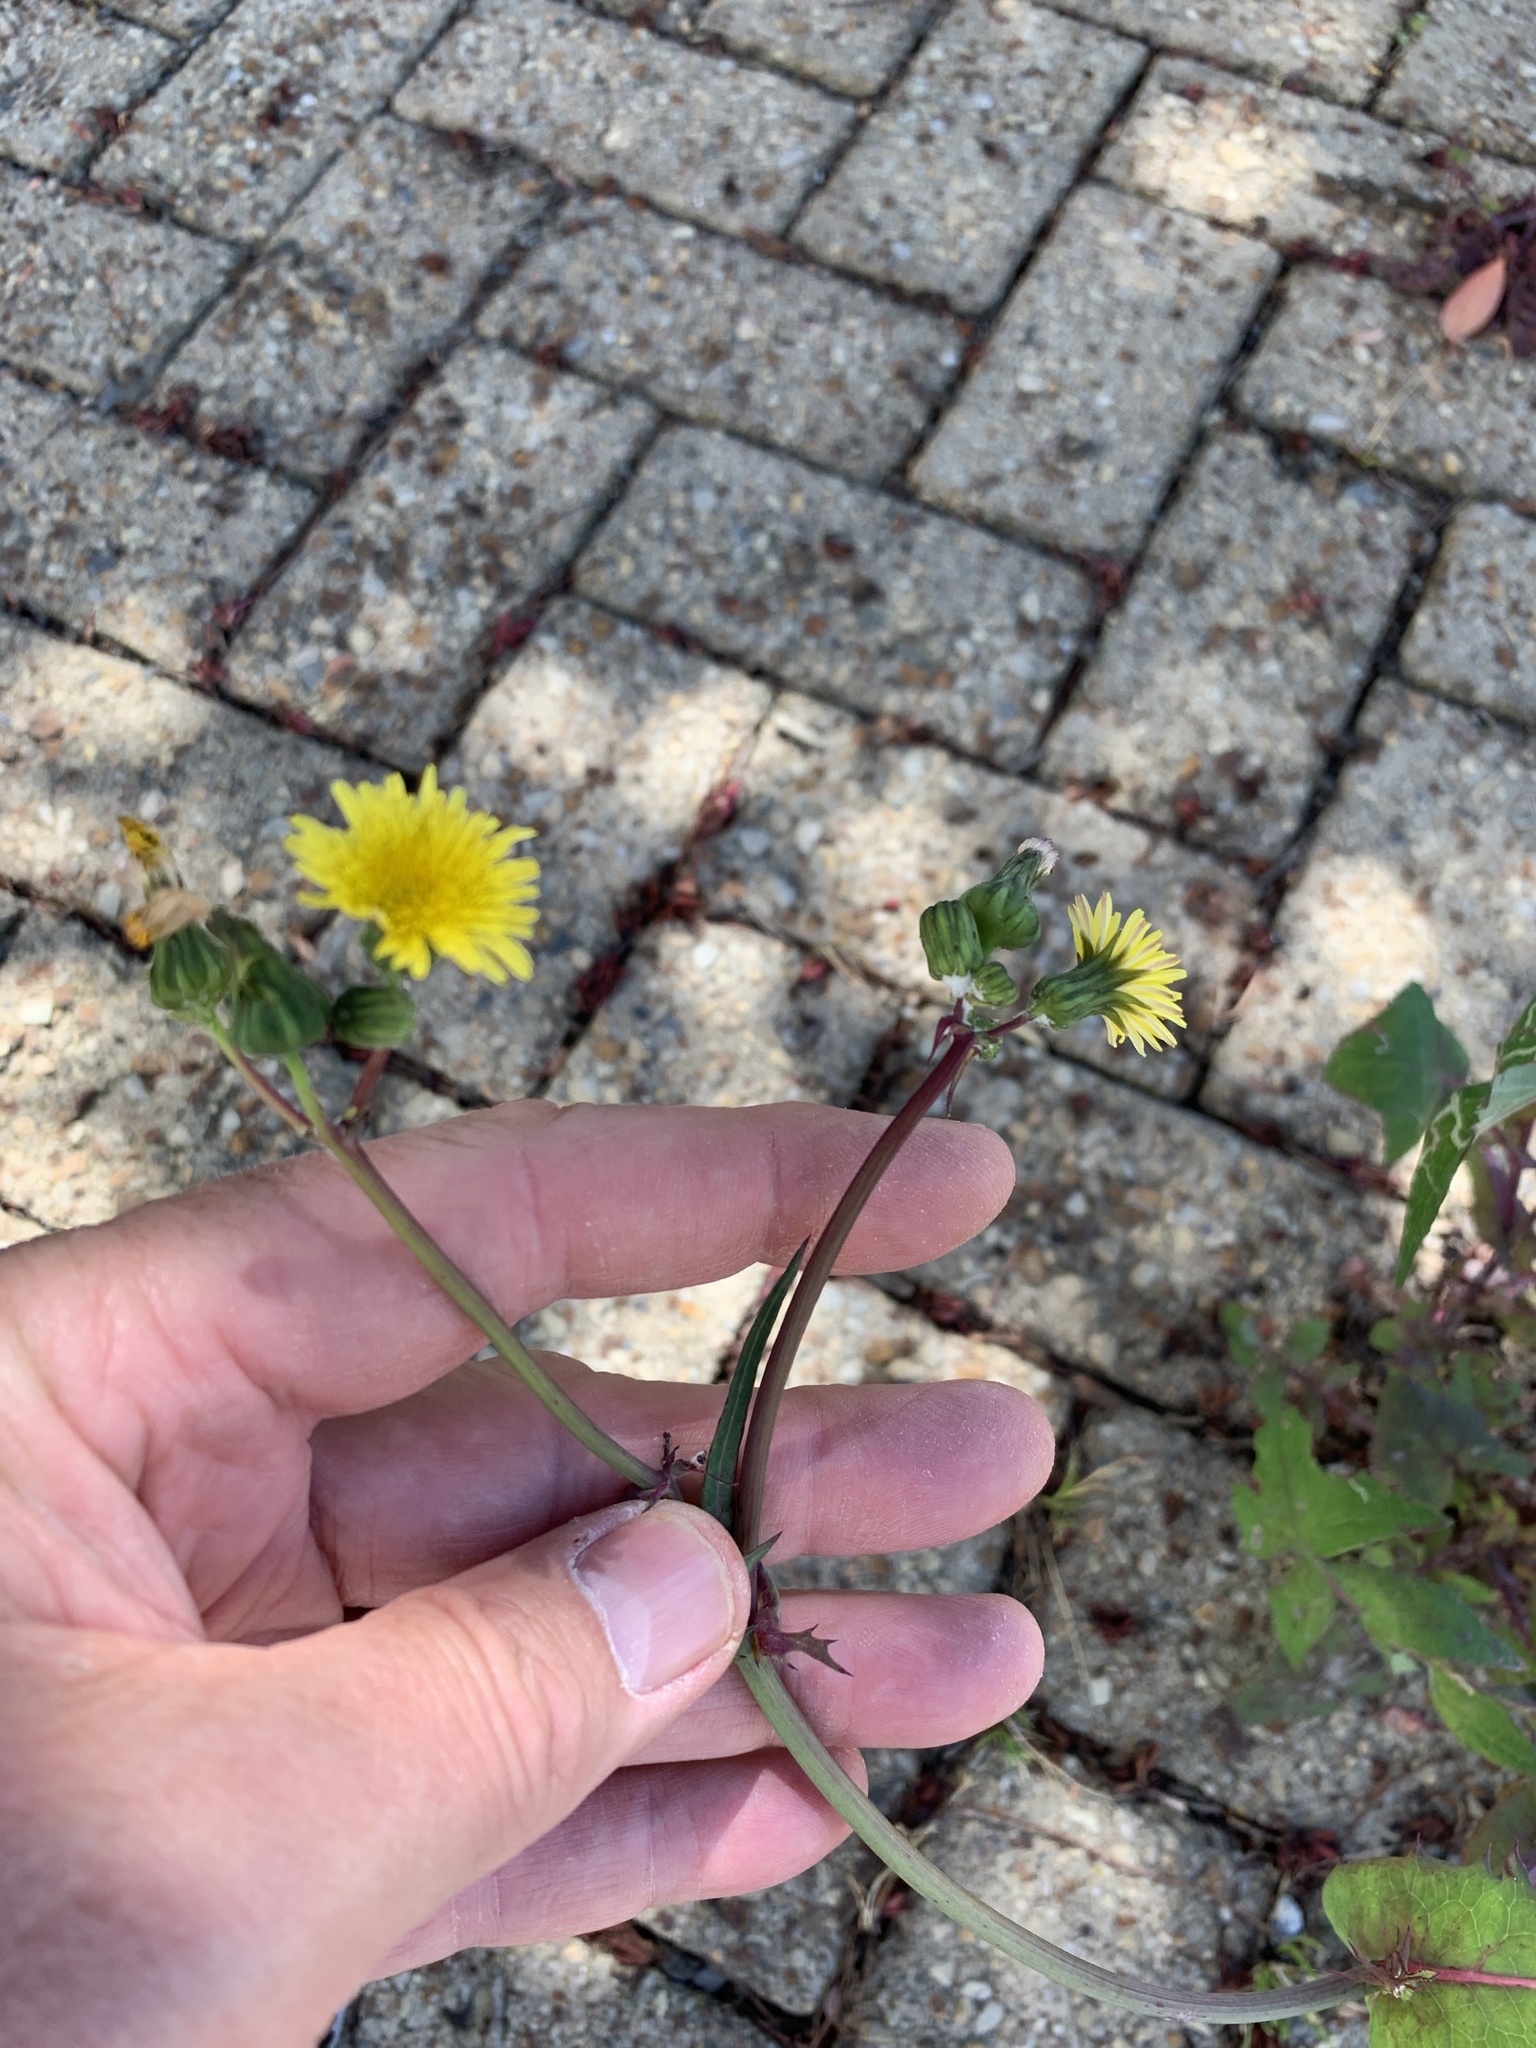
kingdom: Plantae
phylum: Tracheophyta
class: Magnoliopsida
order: Asterales
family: Asteraceae
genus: Sonchus
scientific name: Sonchus oleraceus
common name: Common sowthistle
